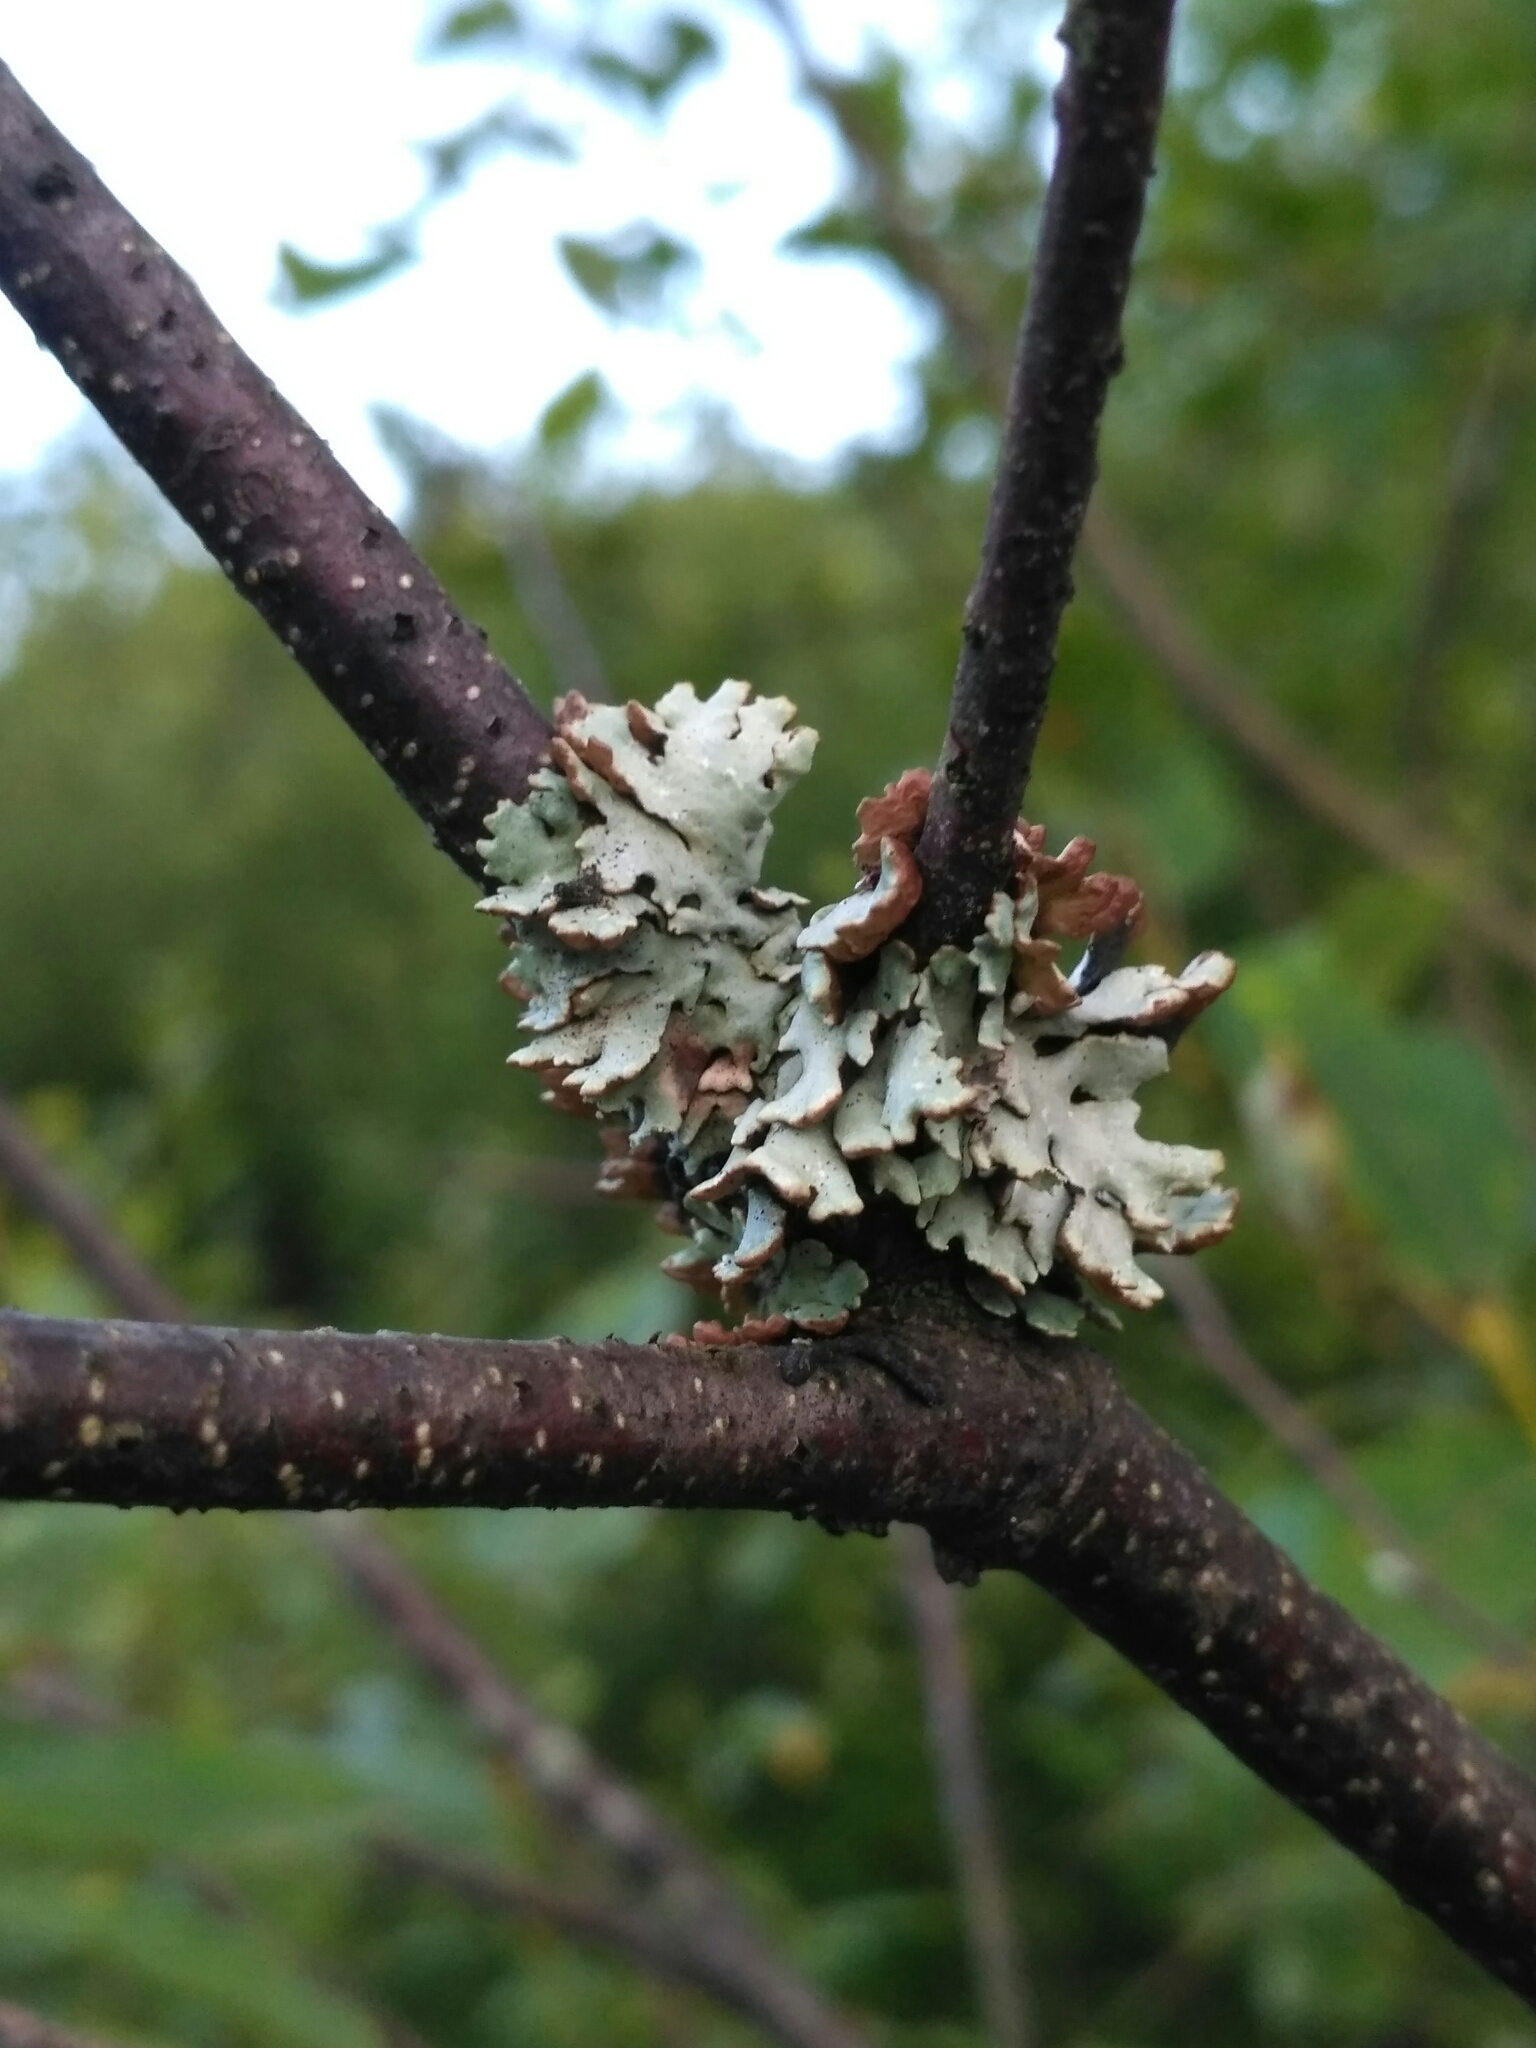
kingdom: Fungi
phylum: Ascomycota
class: Lecanoromycetes
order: Lecanorales
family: Parmeliaceae
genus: Hypogymnia
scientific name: Hypogymnia physodes
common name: Dark crottle
